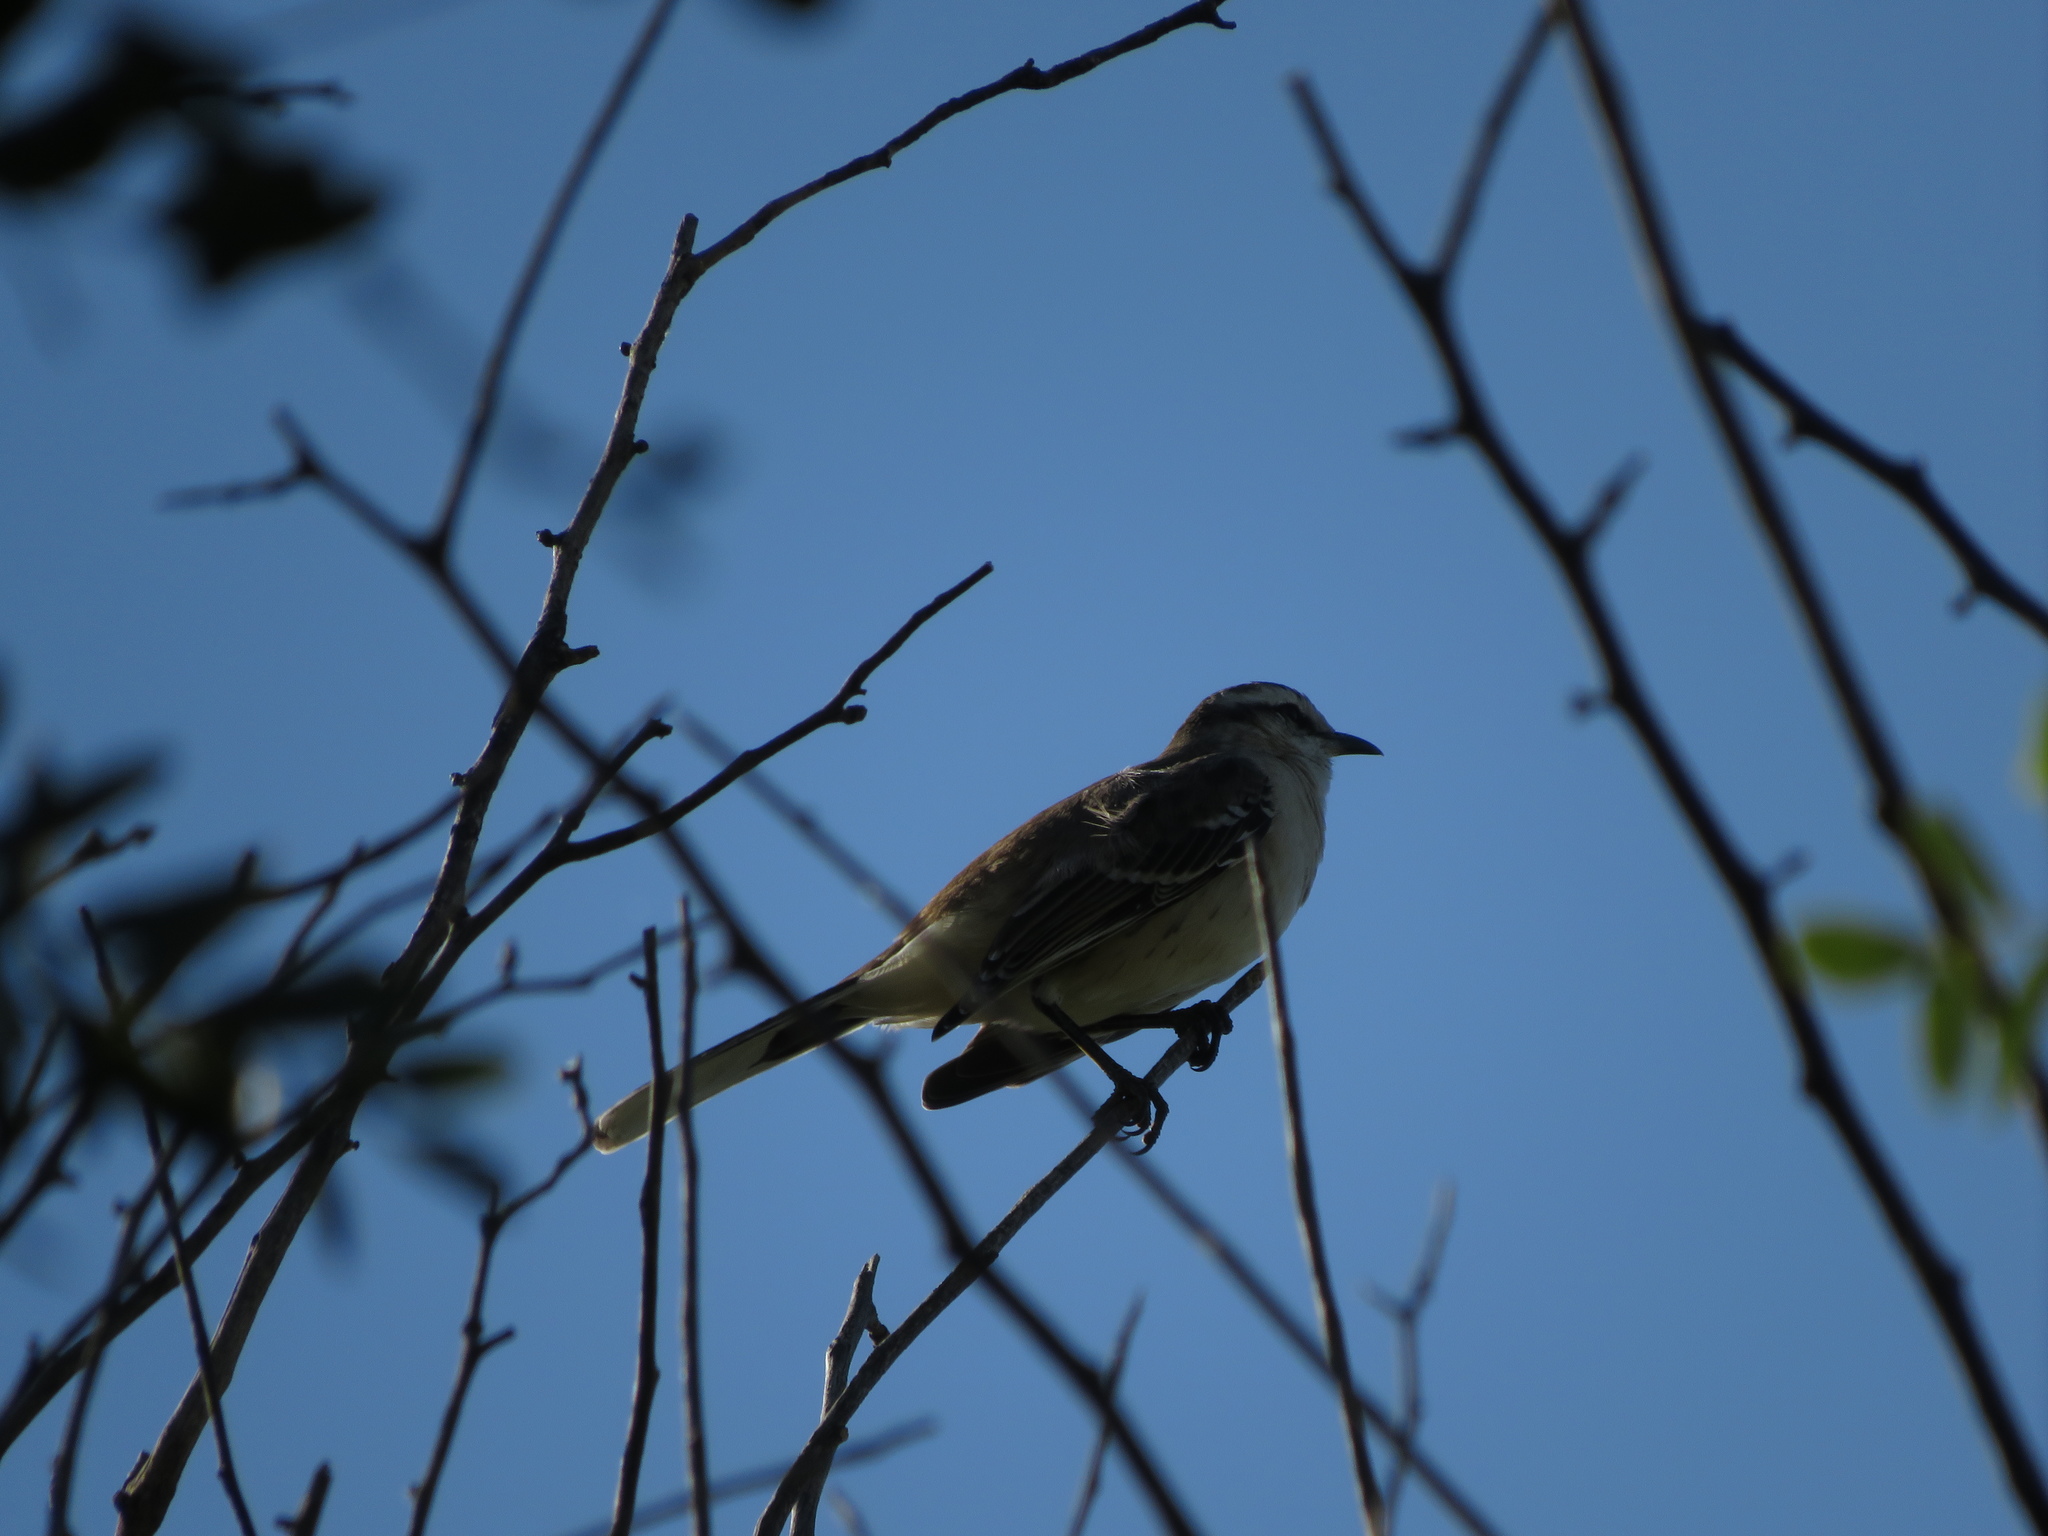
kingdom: Animalia
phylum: Chordata
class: Aves
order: Passeriformes
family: Mimidae
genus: Mimus
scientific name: Mimus saturninus
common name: Chalk-browed mockingbird
